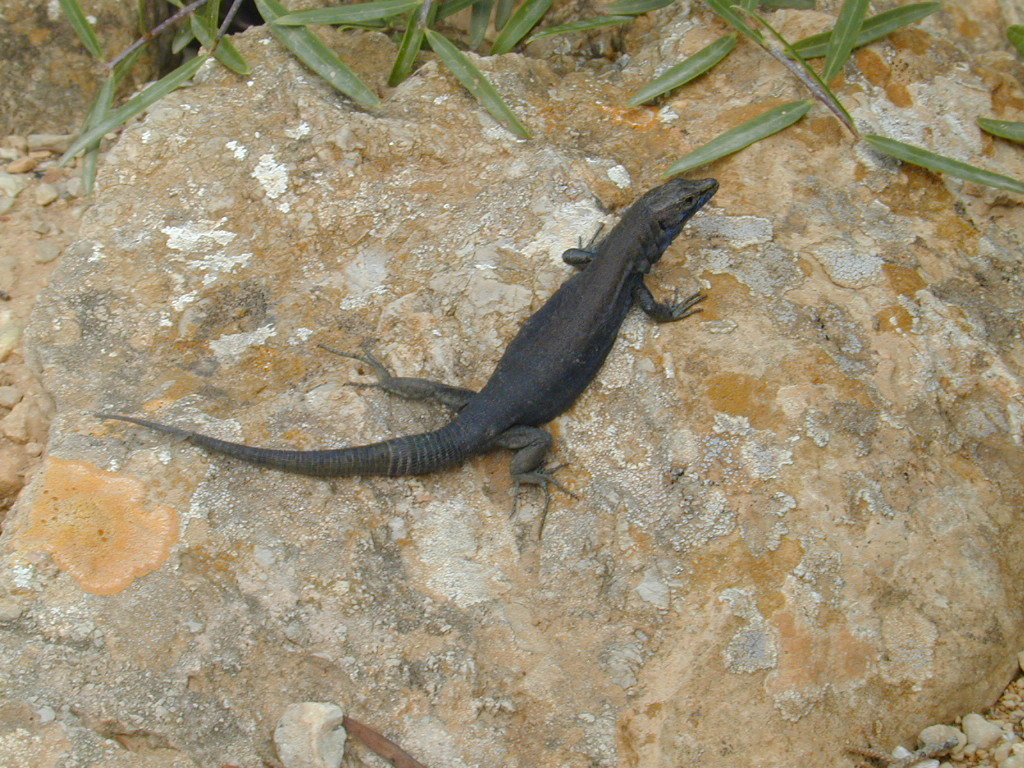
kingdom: Animalia
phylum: Chordata
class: Squamata
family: Lacertidae
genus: Podarcis
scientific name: Podarcis lilfordi
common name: Belearic lizard
